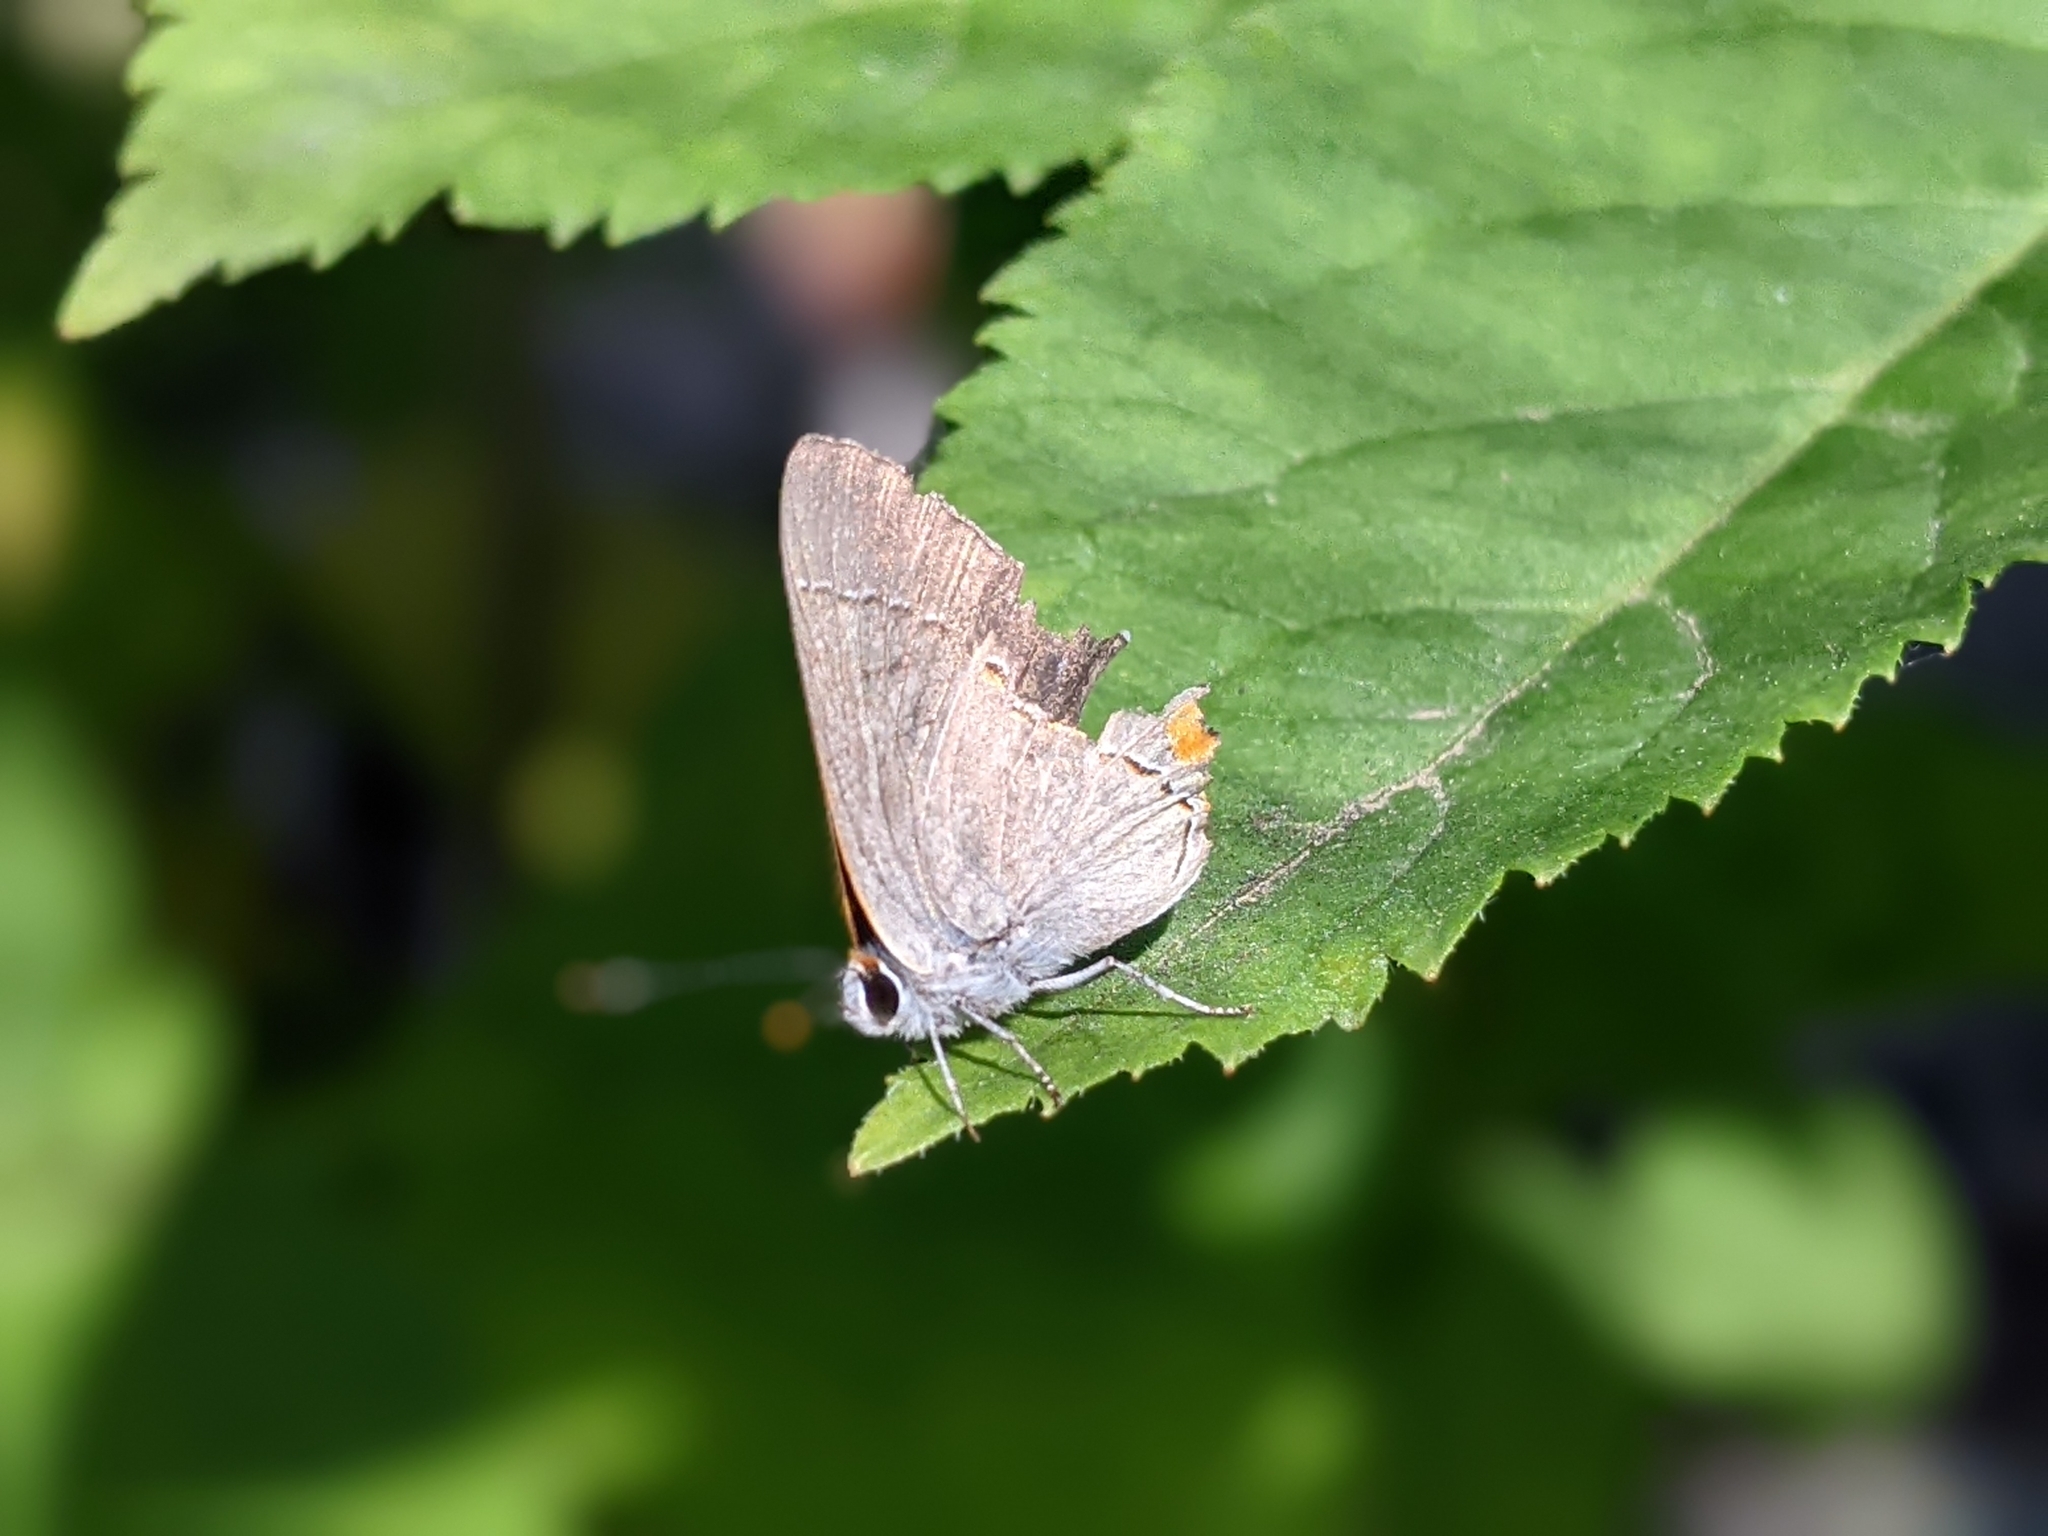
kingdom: Animalia
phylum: Arthropoda
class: Insecta
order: Lepidoptera
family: Lycaenidae
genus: Strymon
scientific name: Strymon melinus
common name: Gray hairstreak
